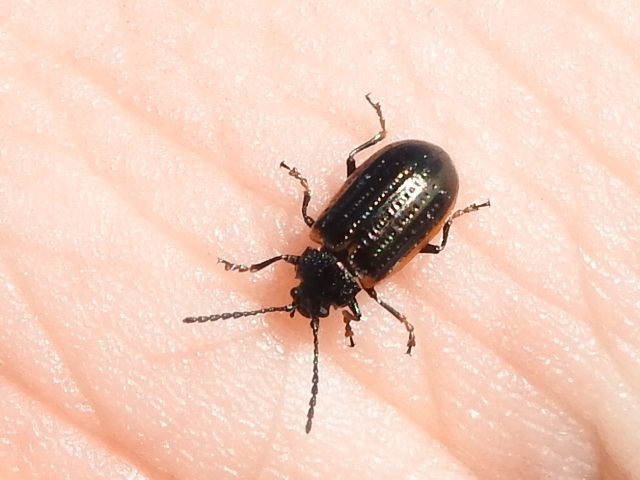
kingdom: Animalia
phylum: Arthropoda
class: Insecta
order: Coleoptera
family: Chrysomelidae
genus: Microtheca
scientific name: Microtheca ochroloma
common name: Leaf beetle
